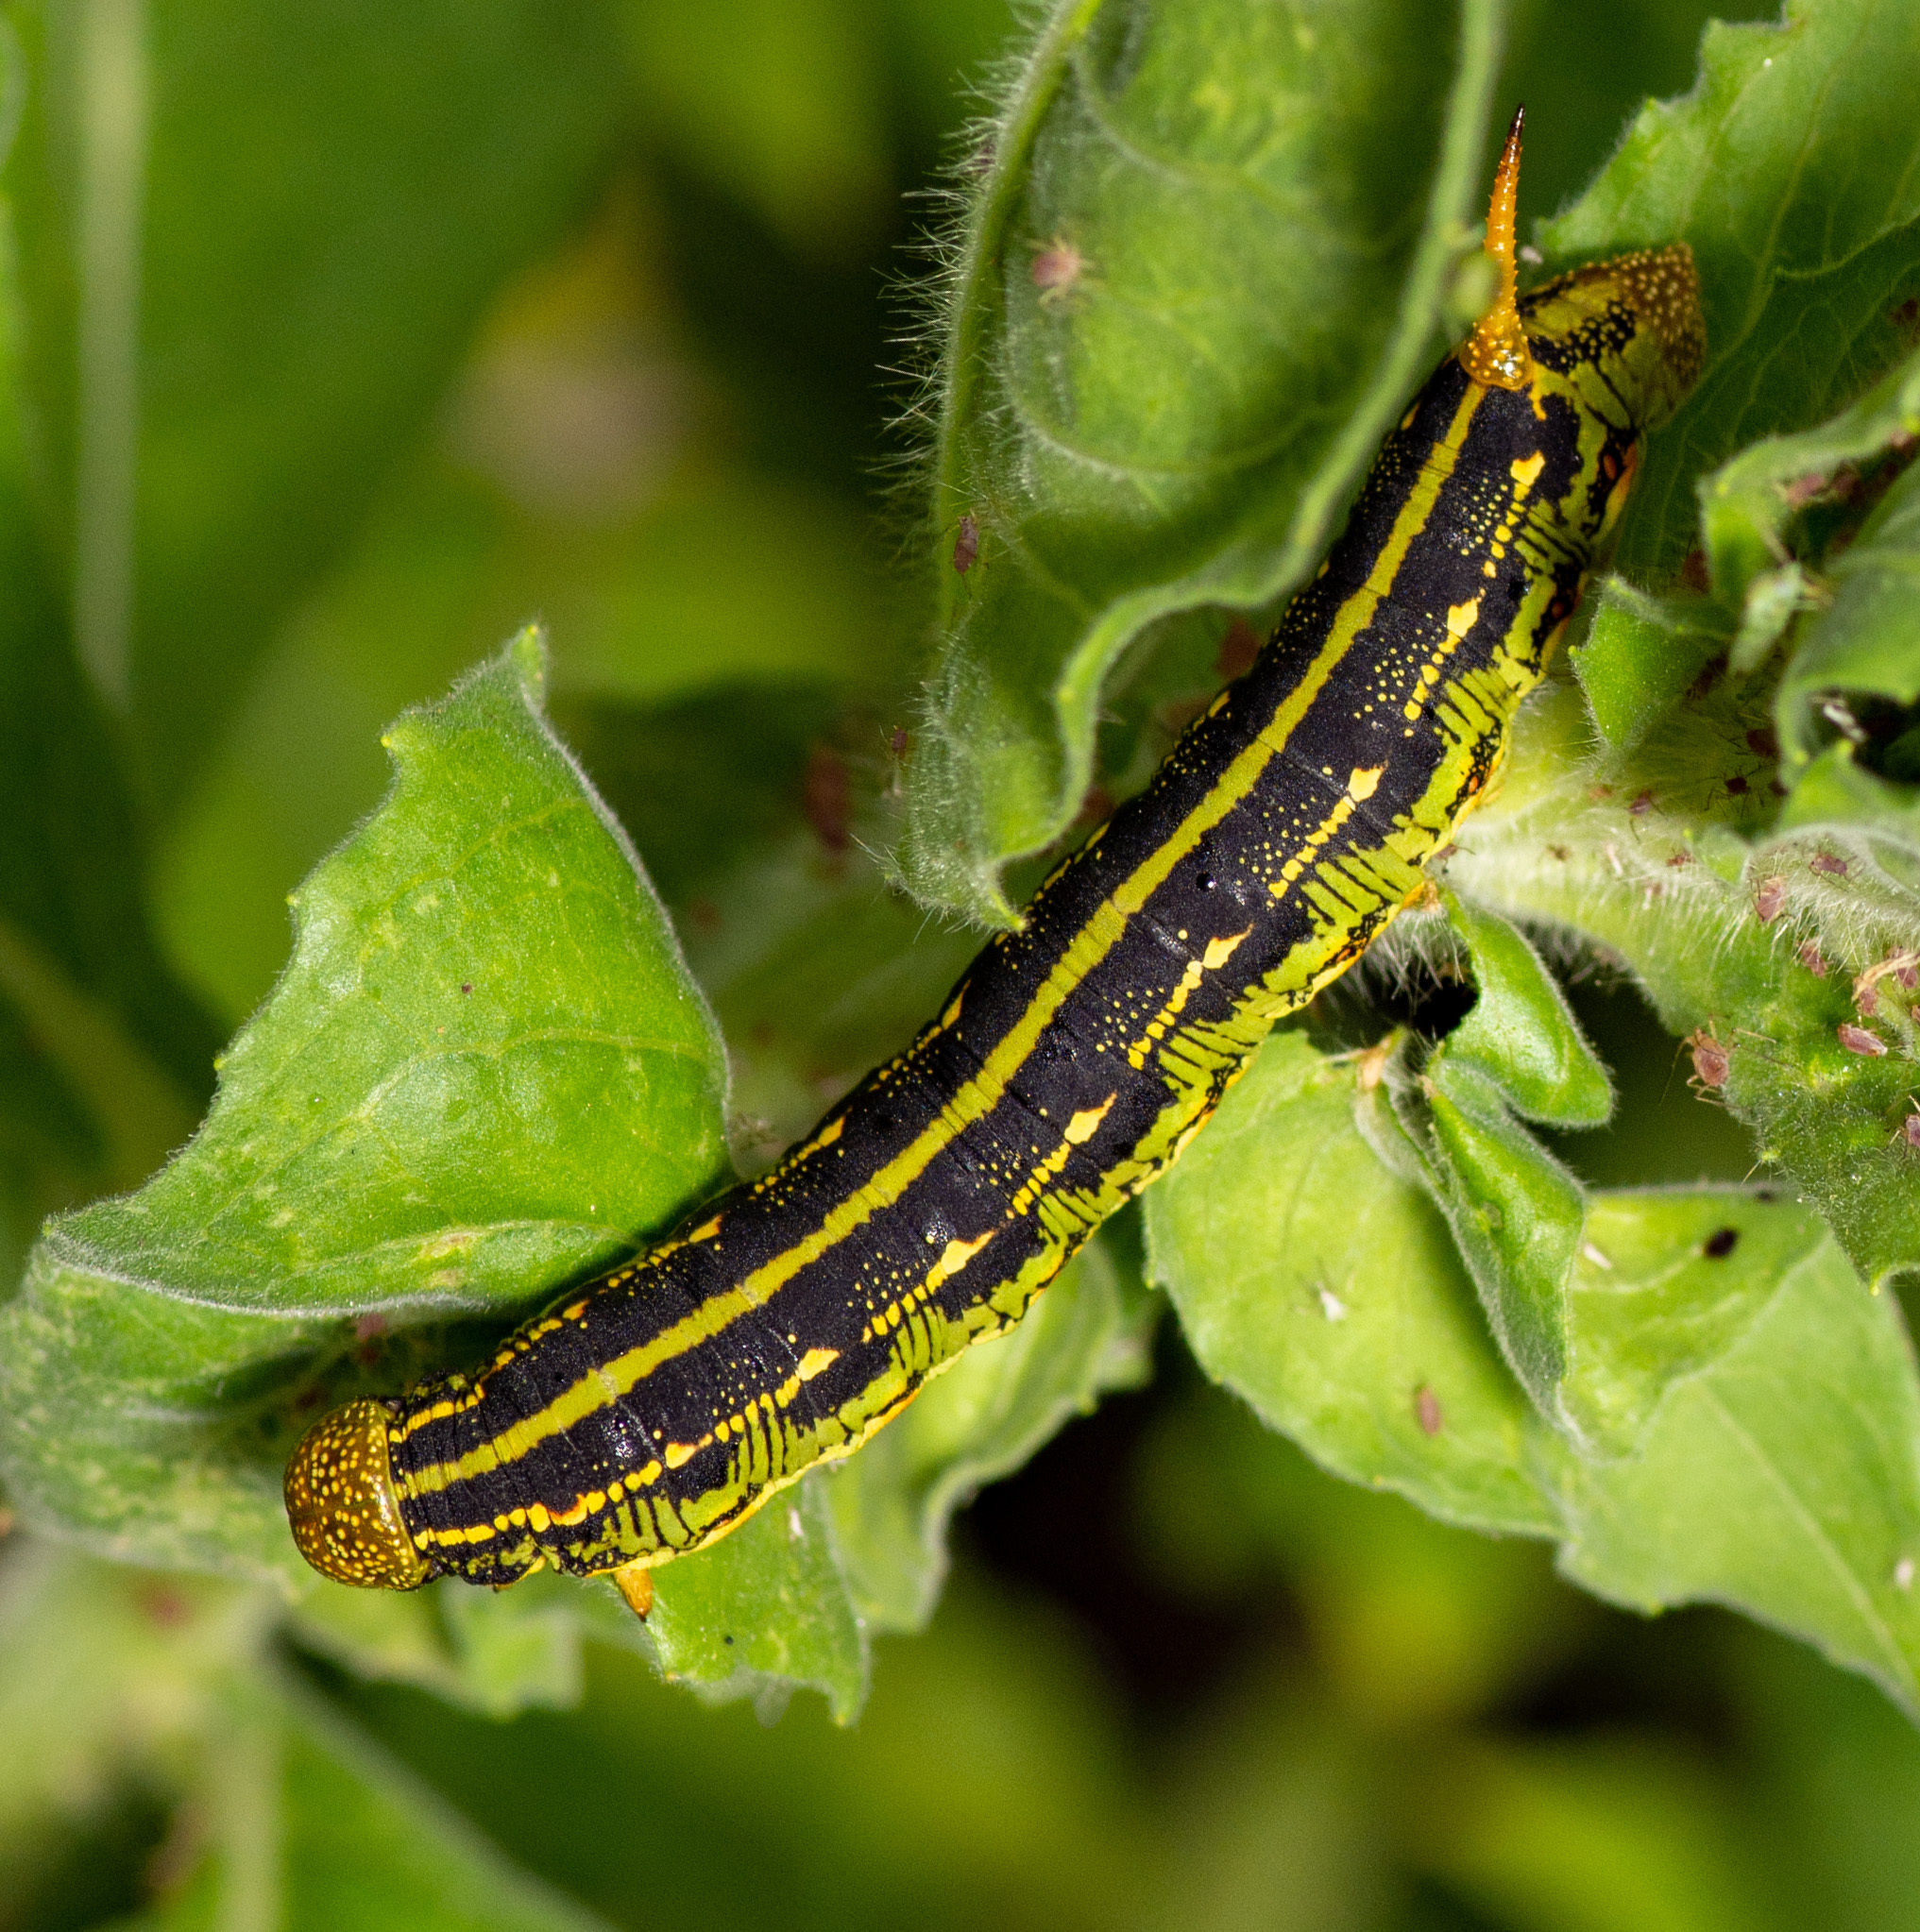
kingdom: Animalia
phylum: Arthropoda
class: Insecta
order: Lepidoptera
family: Sphingidae
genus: Hyles
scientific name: Hyles lineata
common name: White-lined sphinx
